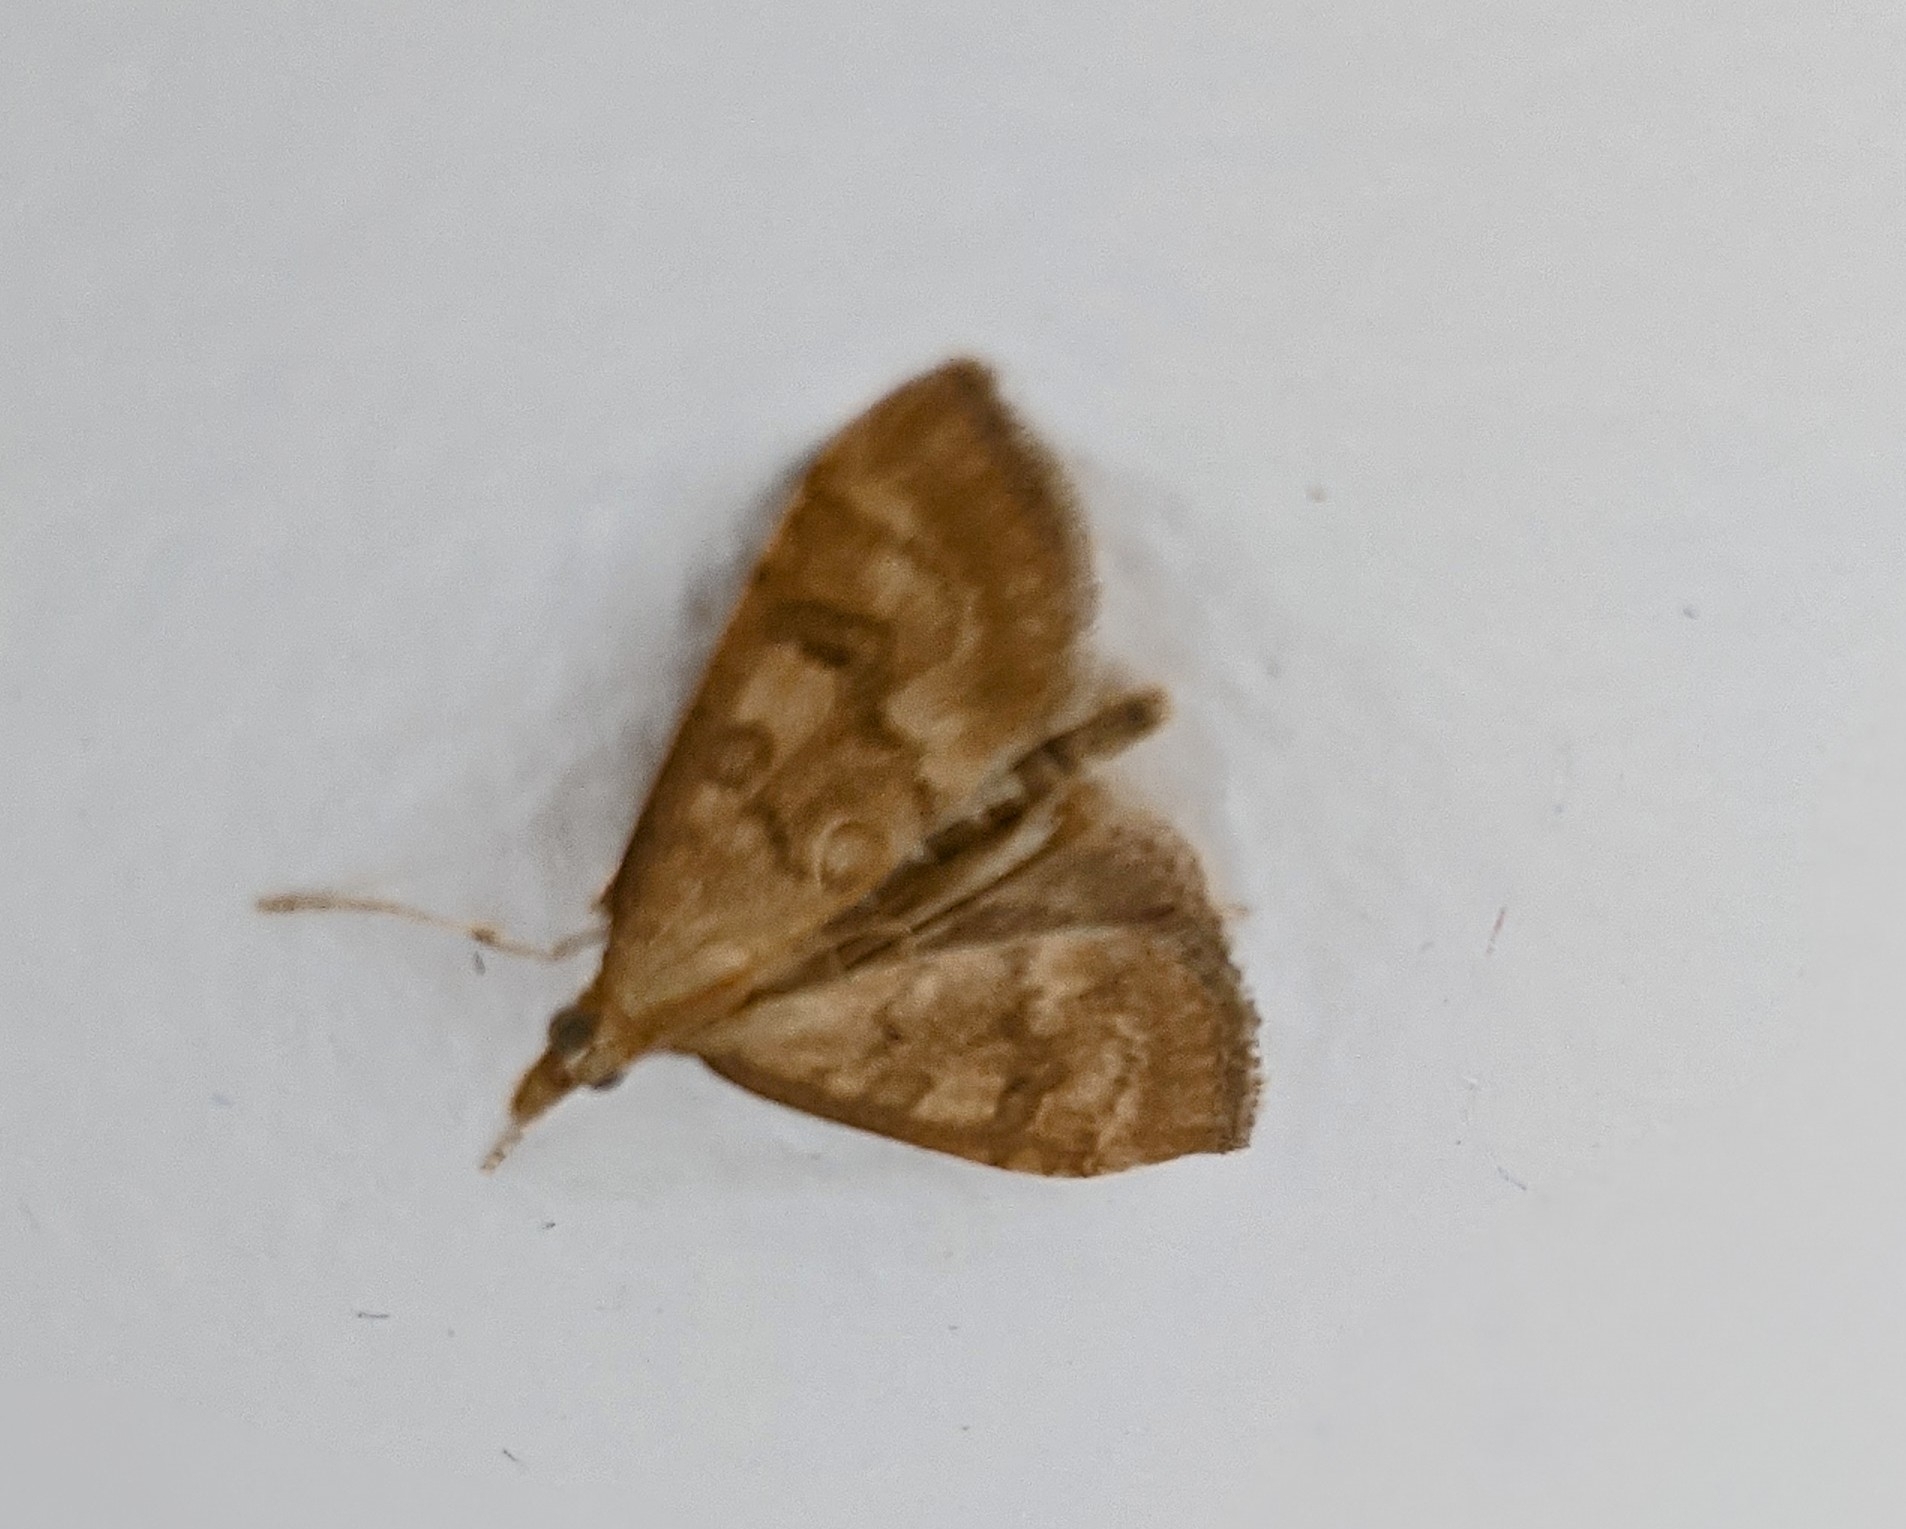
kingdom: Animalia
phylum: Arthropoda
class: Insecta
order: Lepidoptera
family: Crambidae
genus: Udea
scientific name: Udea fulvalis
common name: Fulvous pearl
